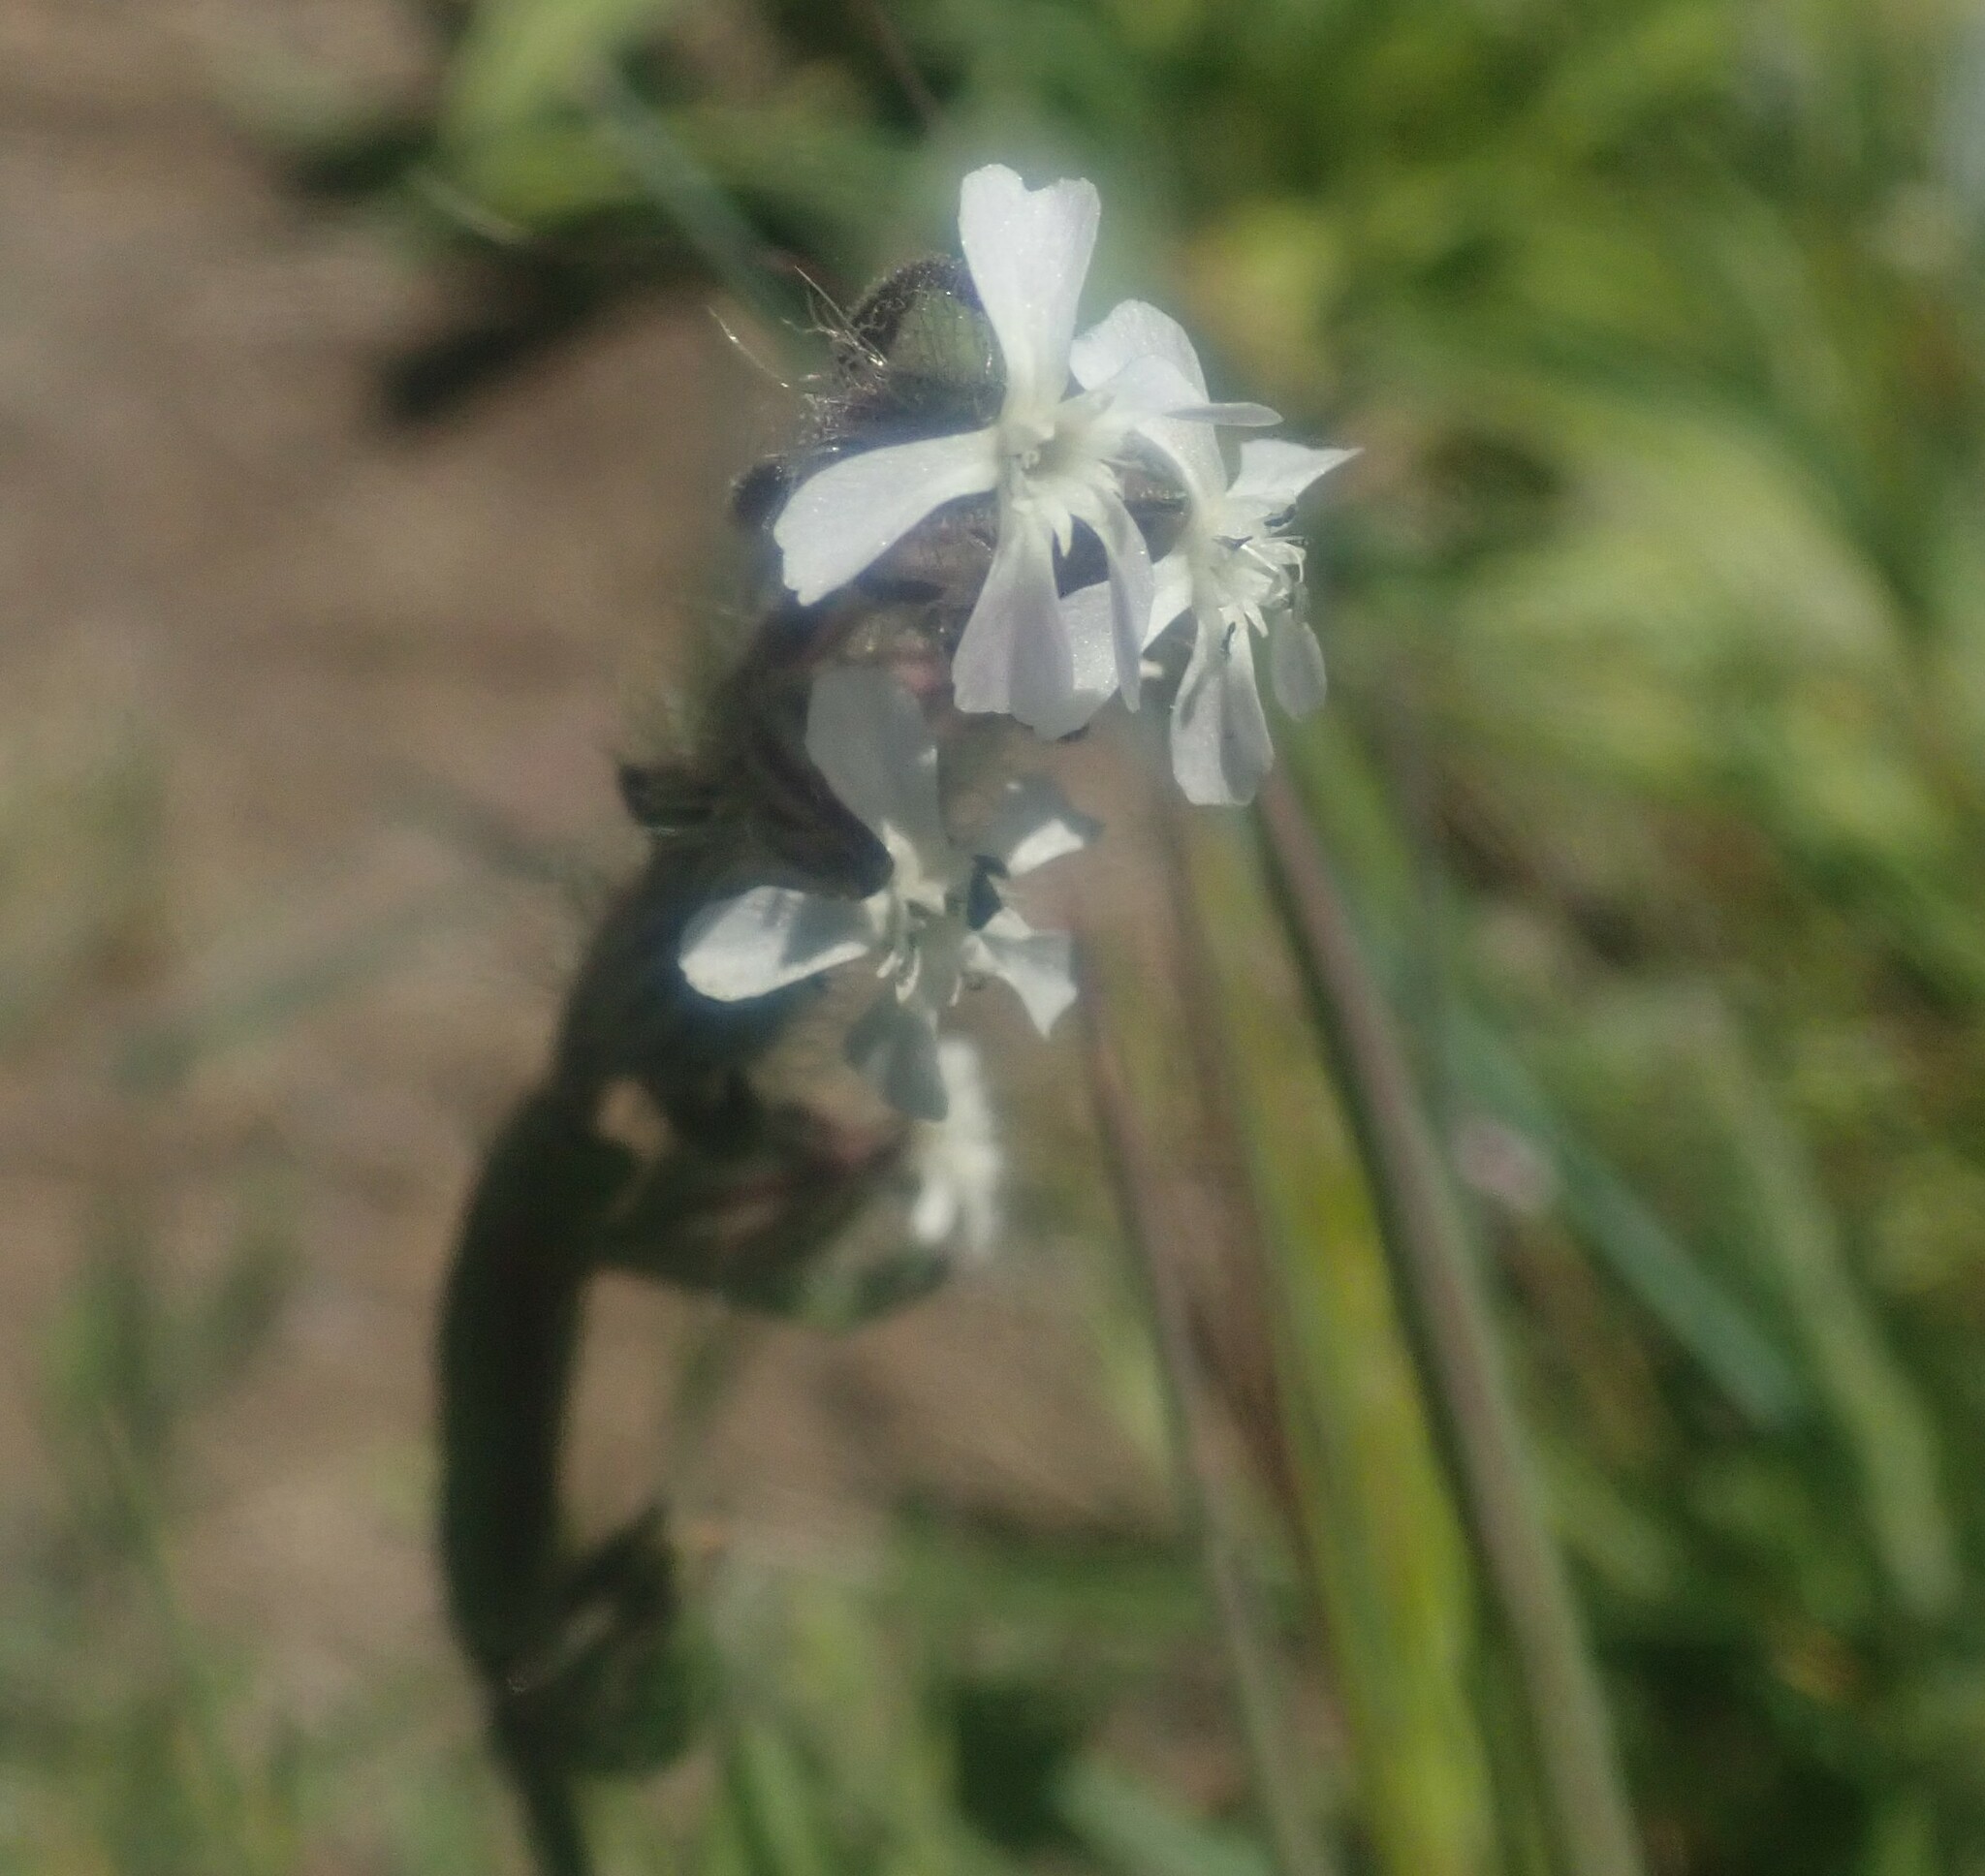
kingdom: Plantae
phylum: Tracheophyta
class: Magnoliopsida
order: Caryophyllales
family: Caryophyllaceae
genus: Silene
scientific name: Silene gallica
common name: Small-flowered catchfly
